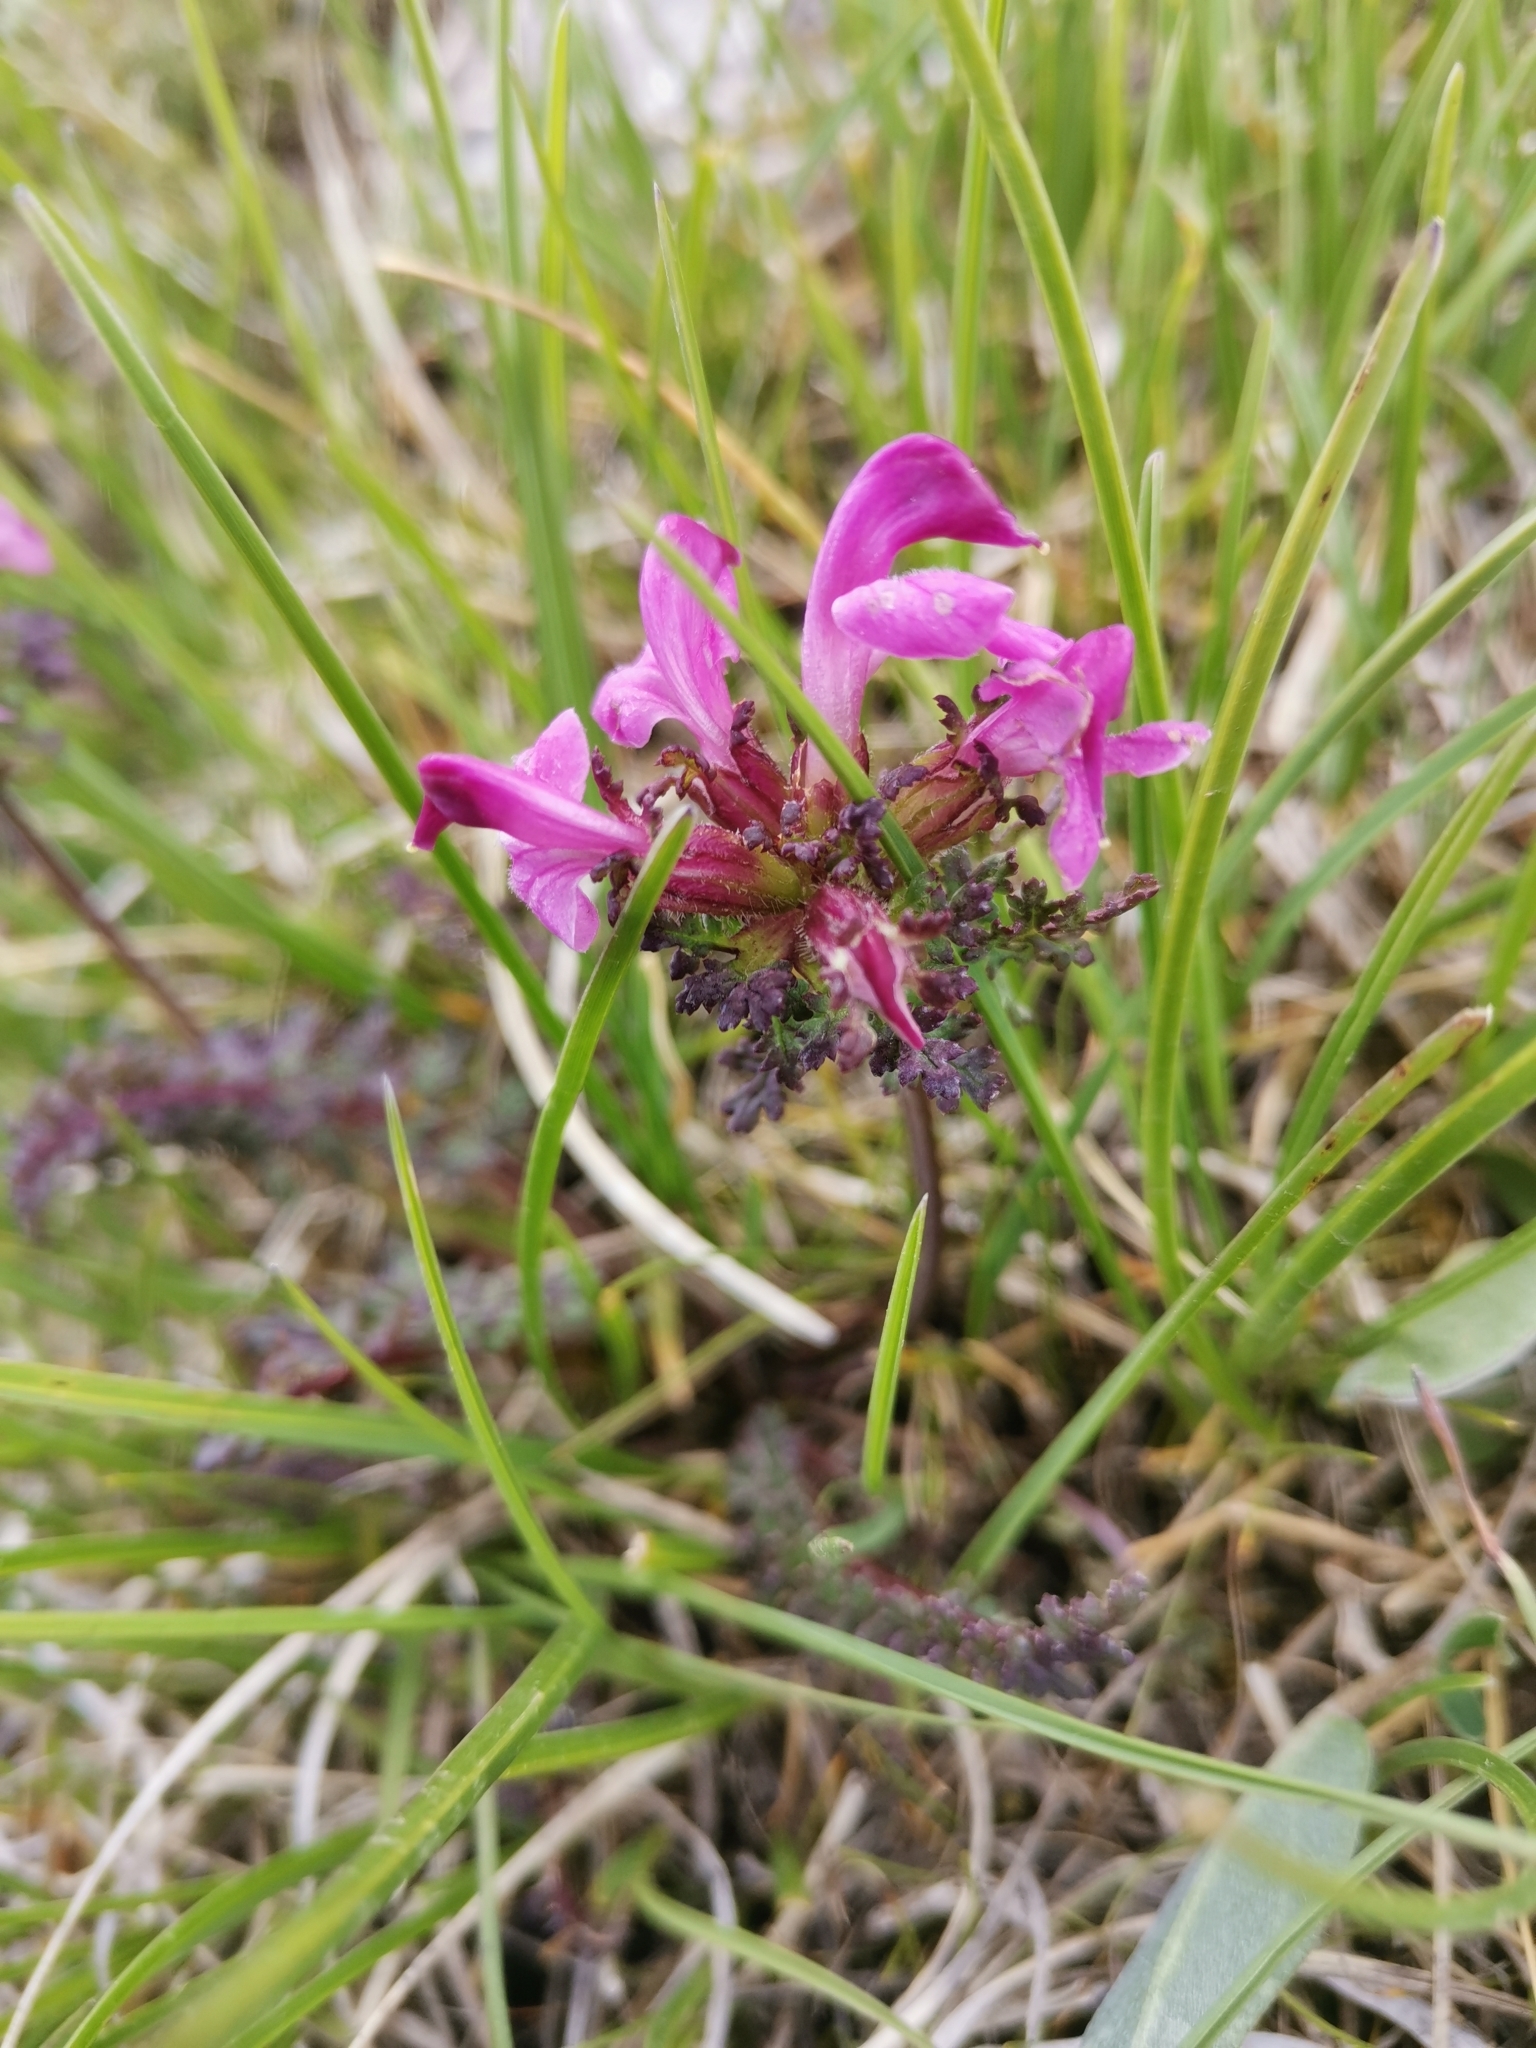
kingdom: Plantae
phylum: Tracheophyta
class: Magnoliopsida
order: Lamiales
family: Orobanchaceae
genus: Pedicularis
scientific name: Pedicularis rostratocapitata
